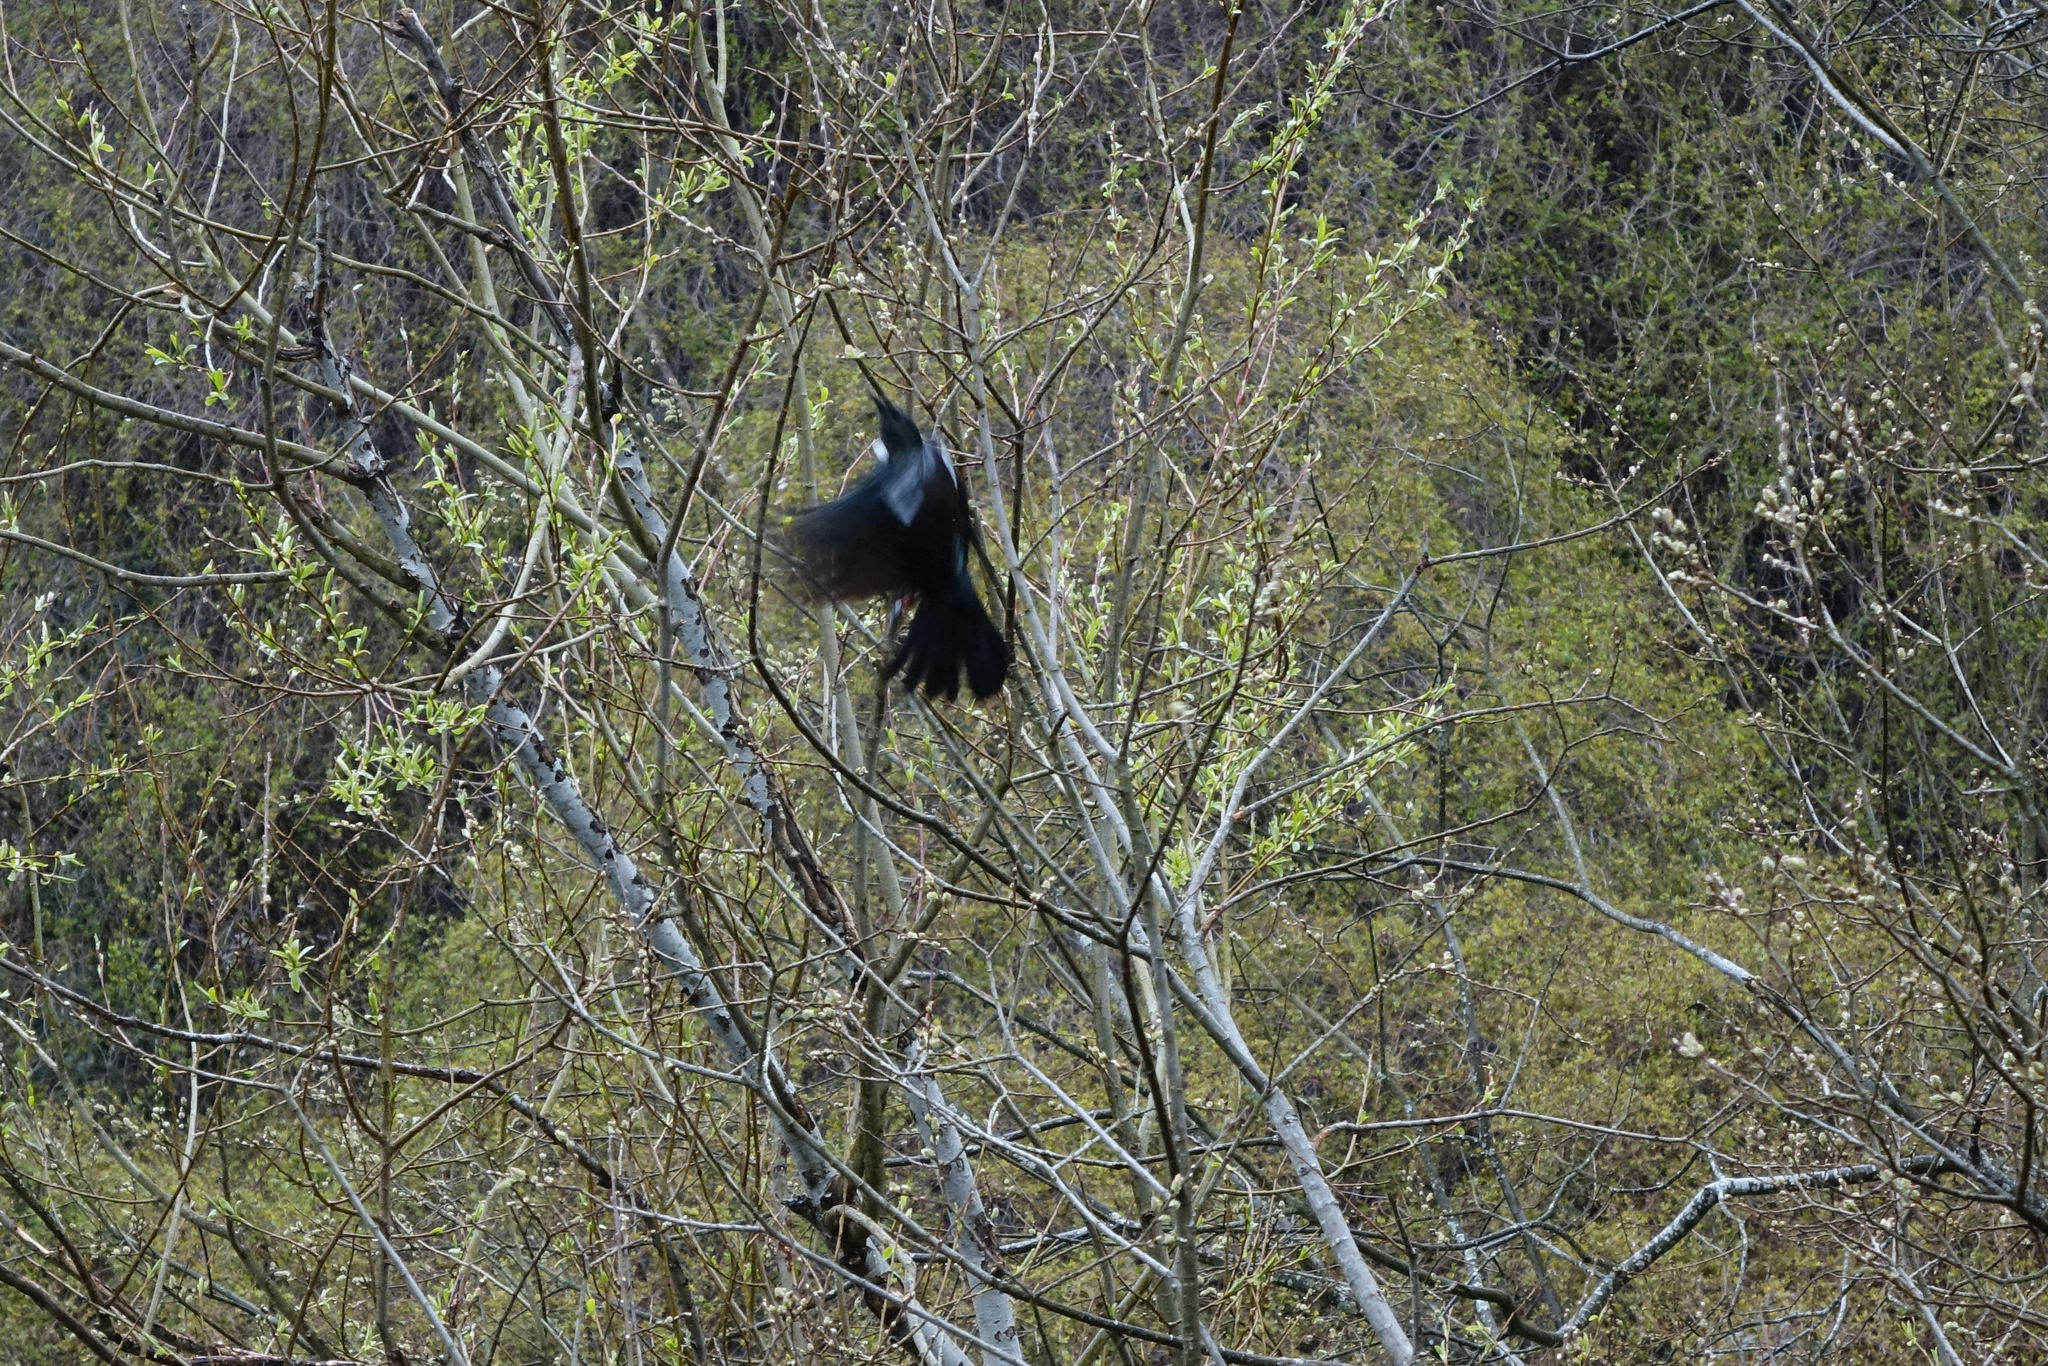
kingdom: Animalia
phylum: Chordata
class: Aves
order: Passeriformes
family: Meliphagidae
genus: Prosthemadera
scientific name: Prosthemadera novaeseelandiae
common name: Tui
